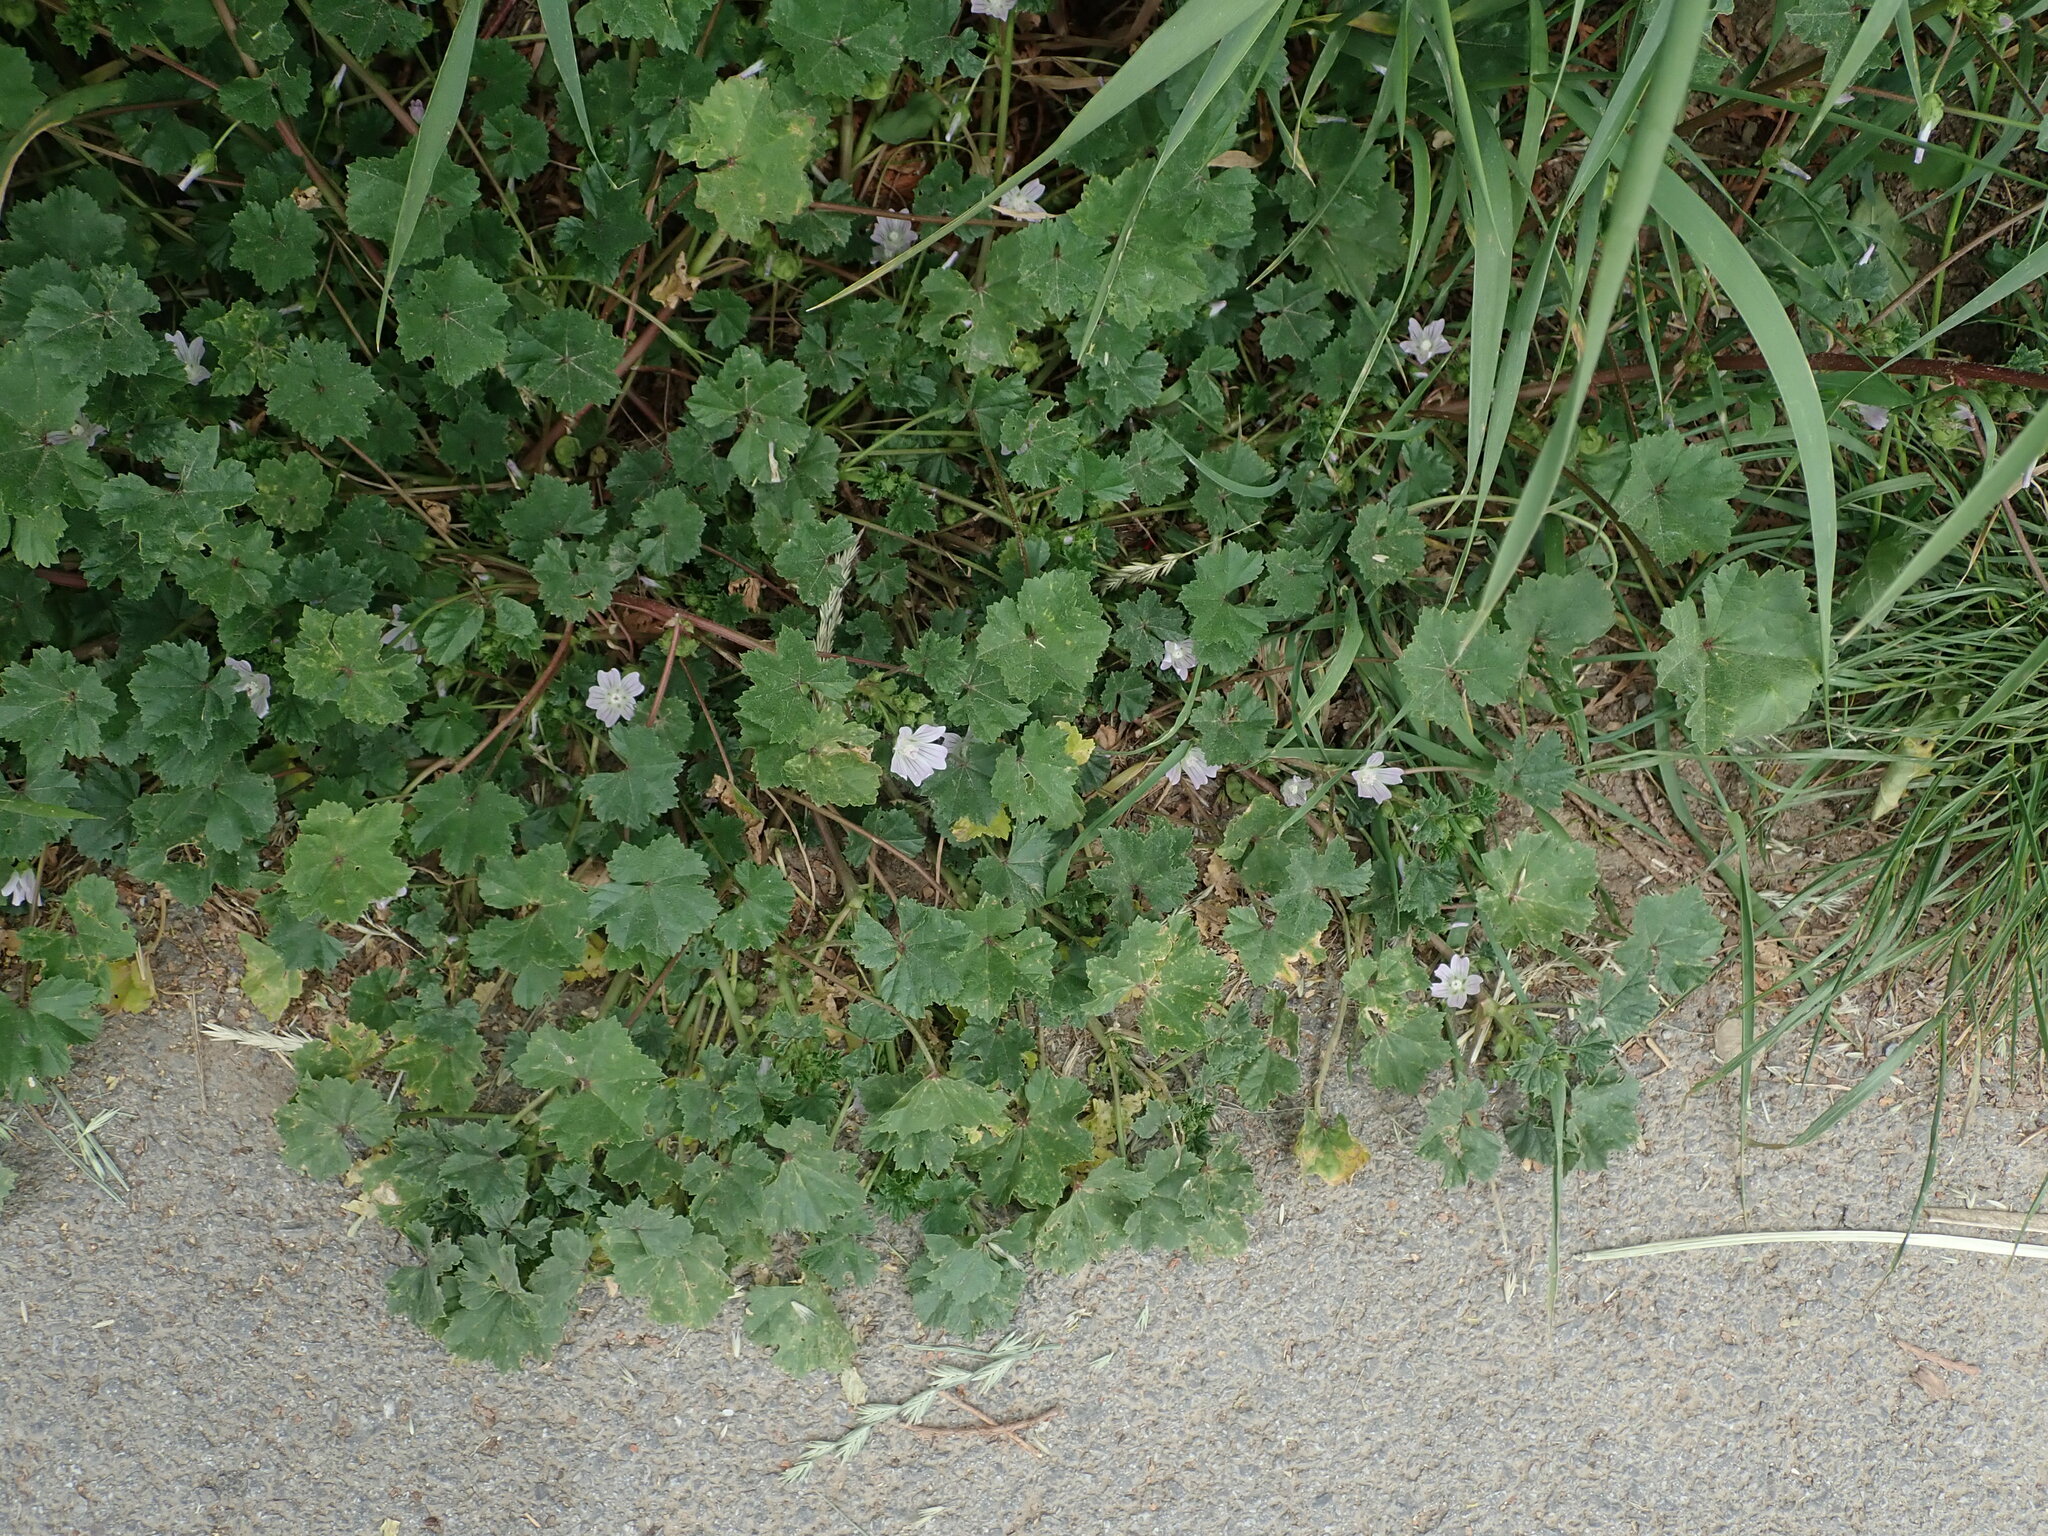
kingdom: Plantae
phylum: Tracheophyta
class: Magnoliopsida
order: Malvales
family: Malvaceae
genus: Malva
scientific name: Malva neglecta
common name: Common mallow
